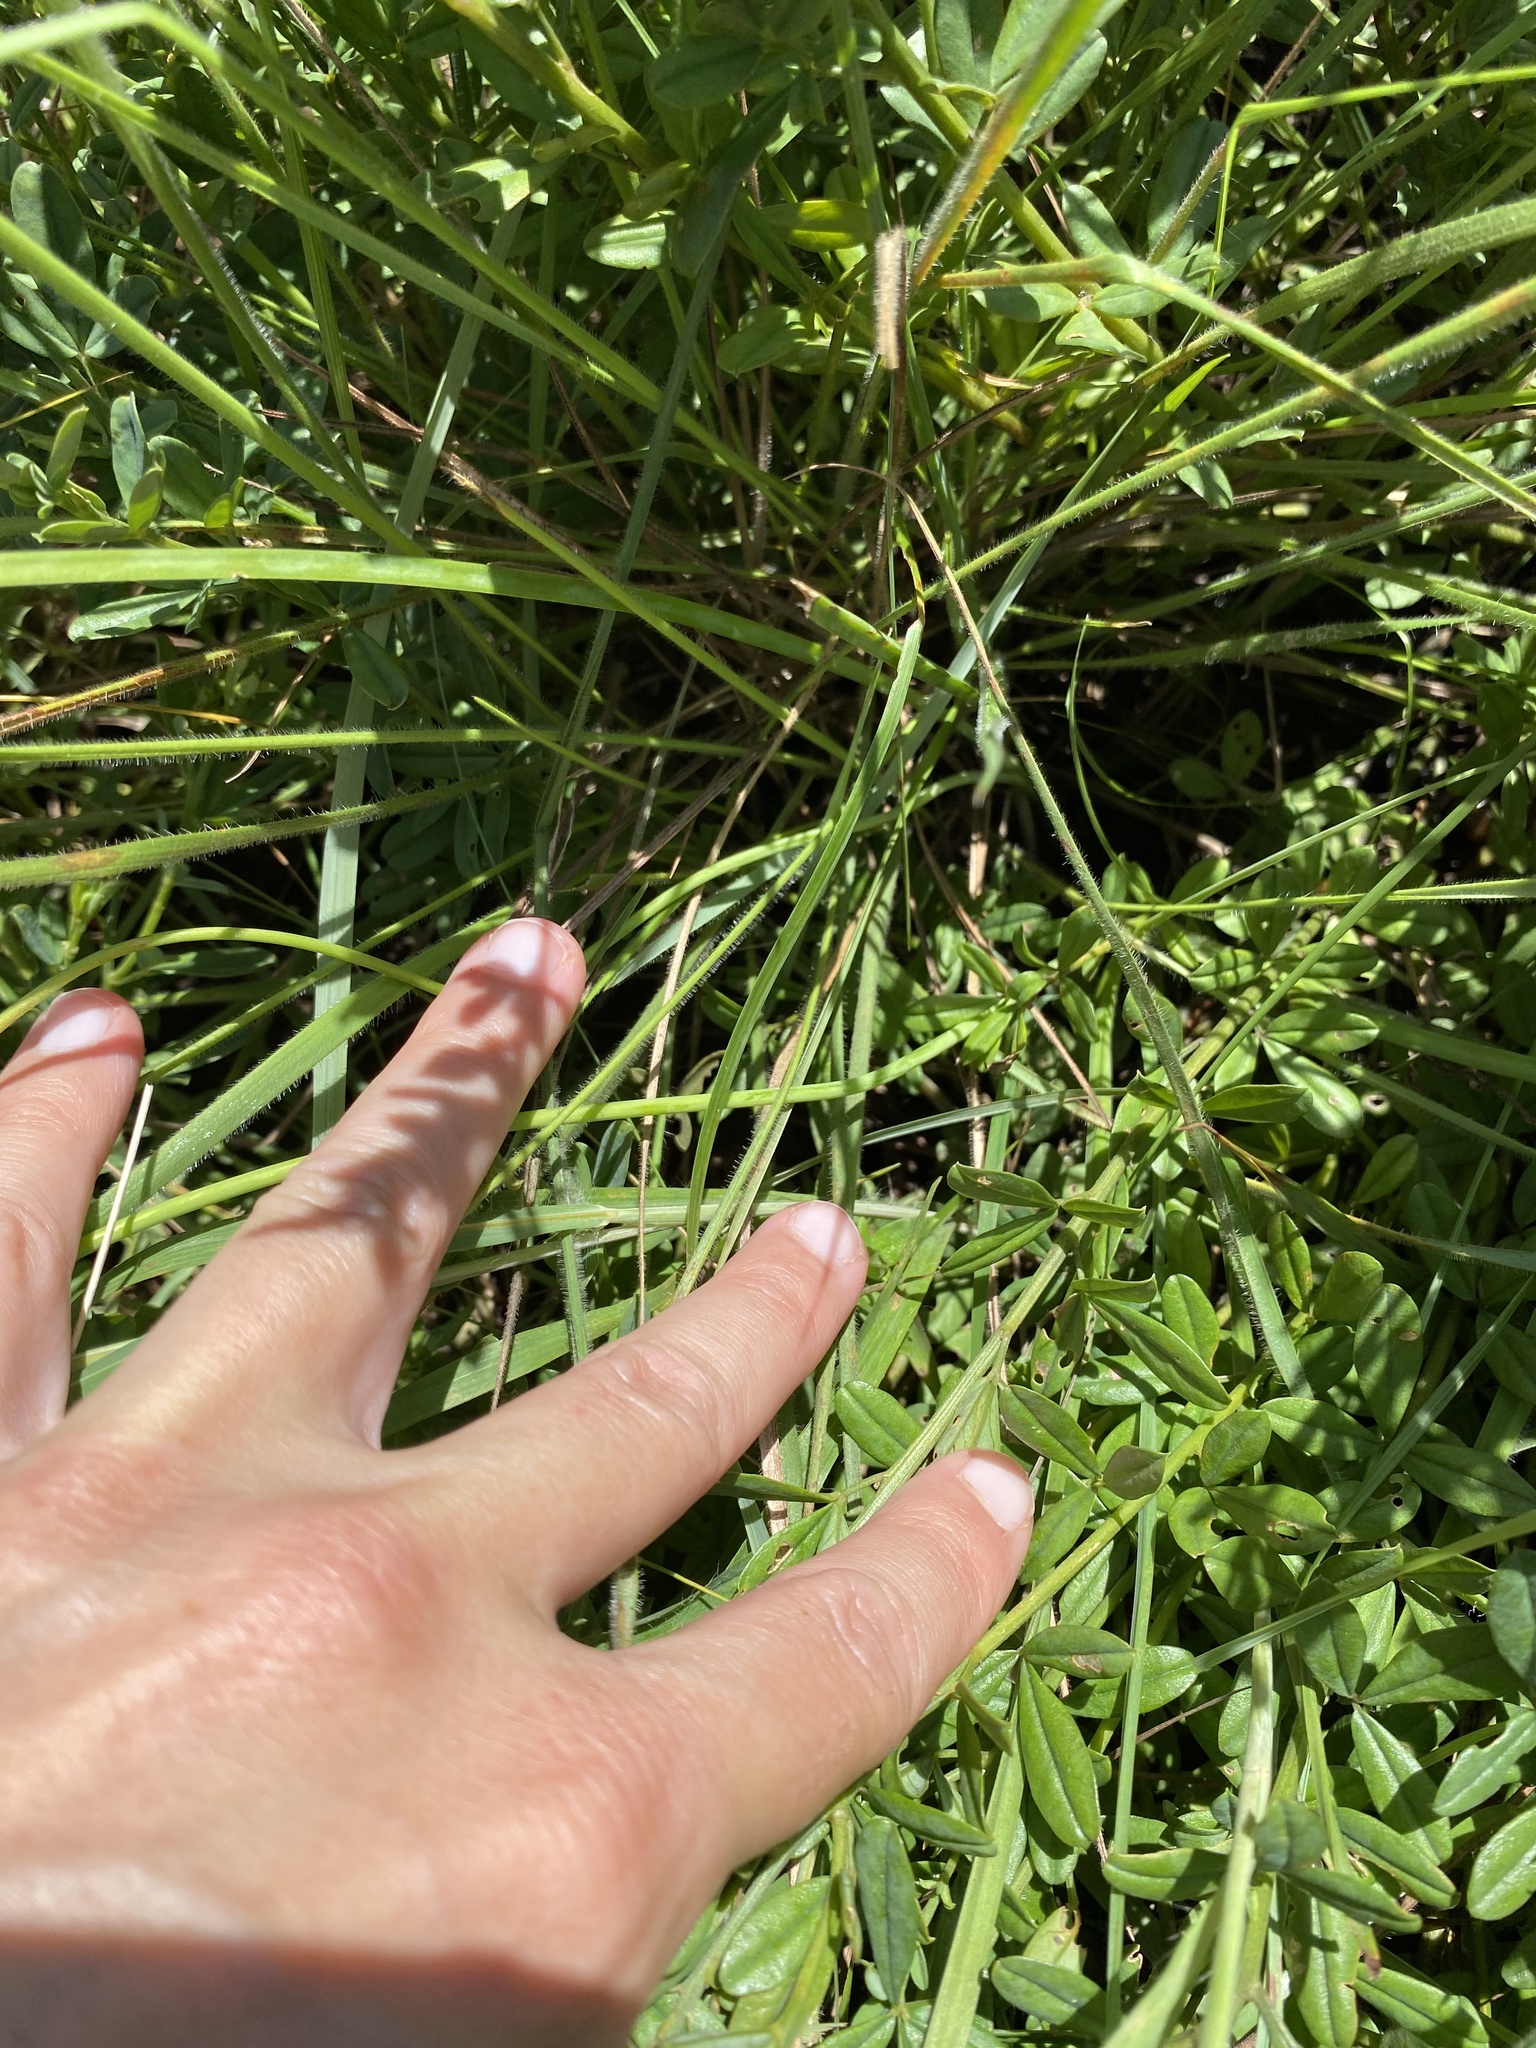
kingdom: Plantae
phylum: Tracheophyta
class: Liliopsida
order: Asparagales
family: Asphodelaceae
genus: Kniphofia
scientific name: Kniphofia buchananii
